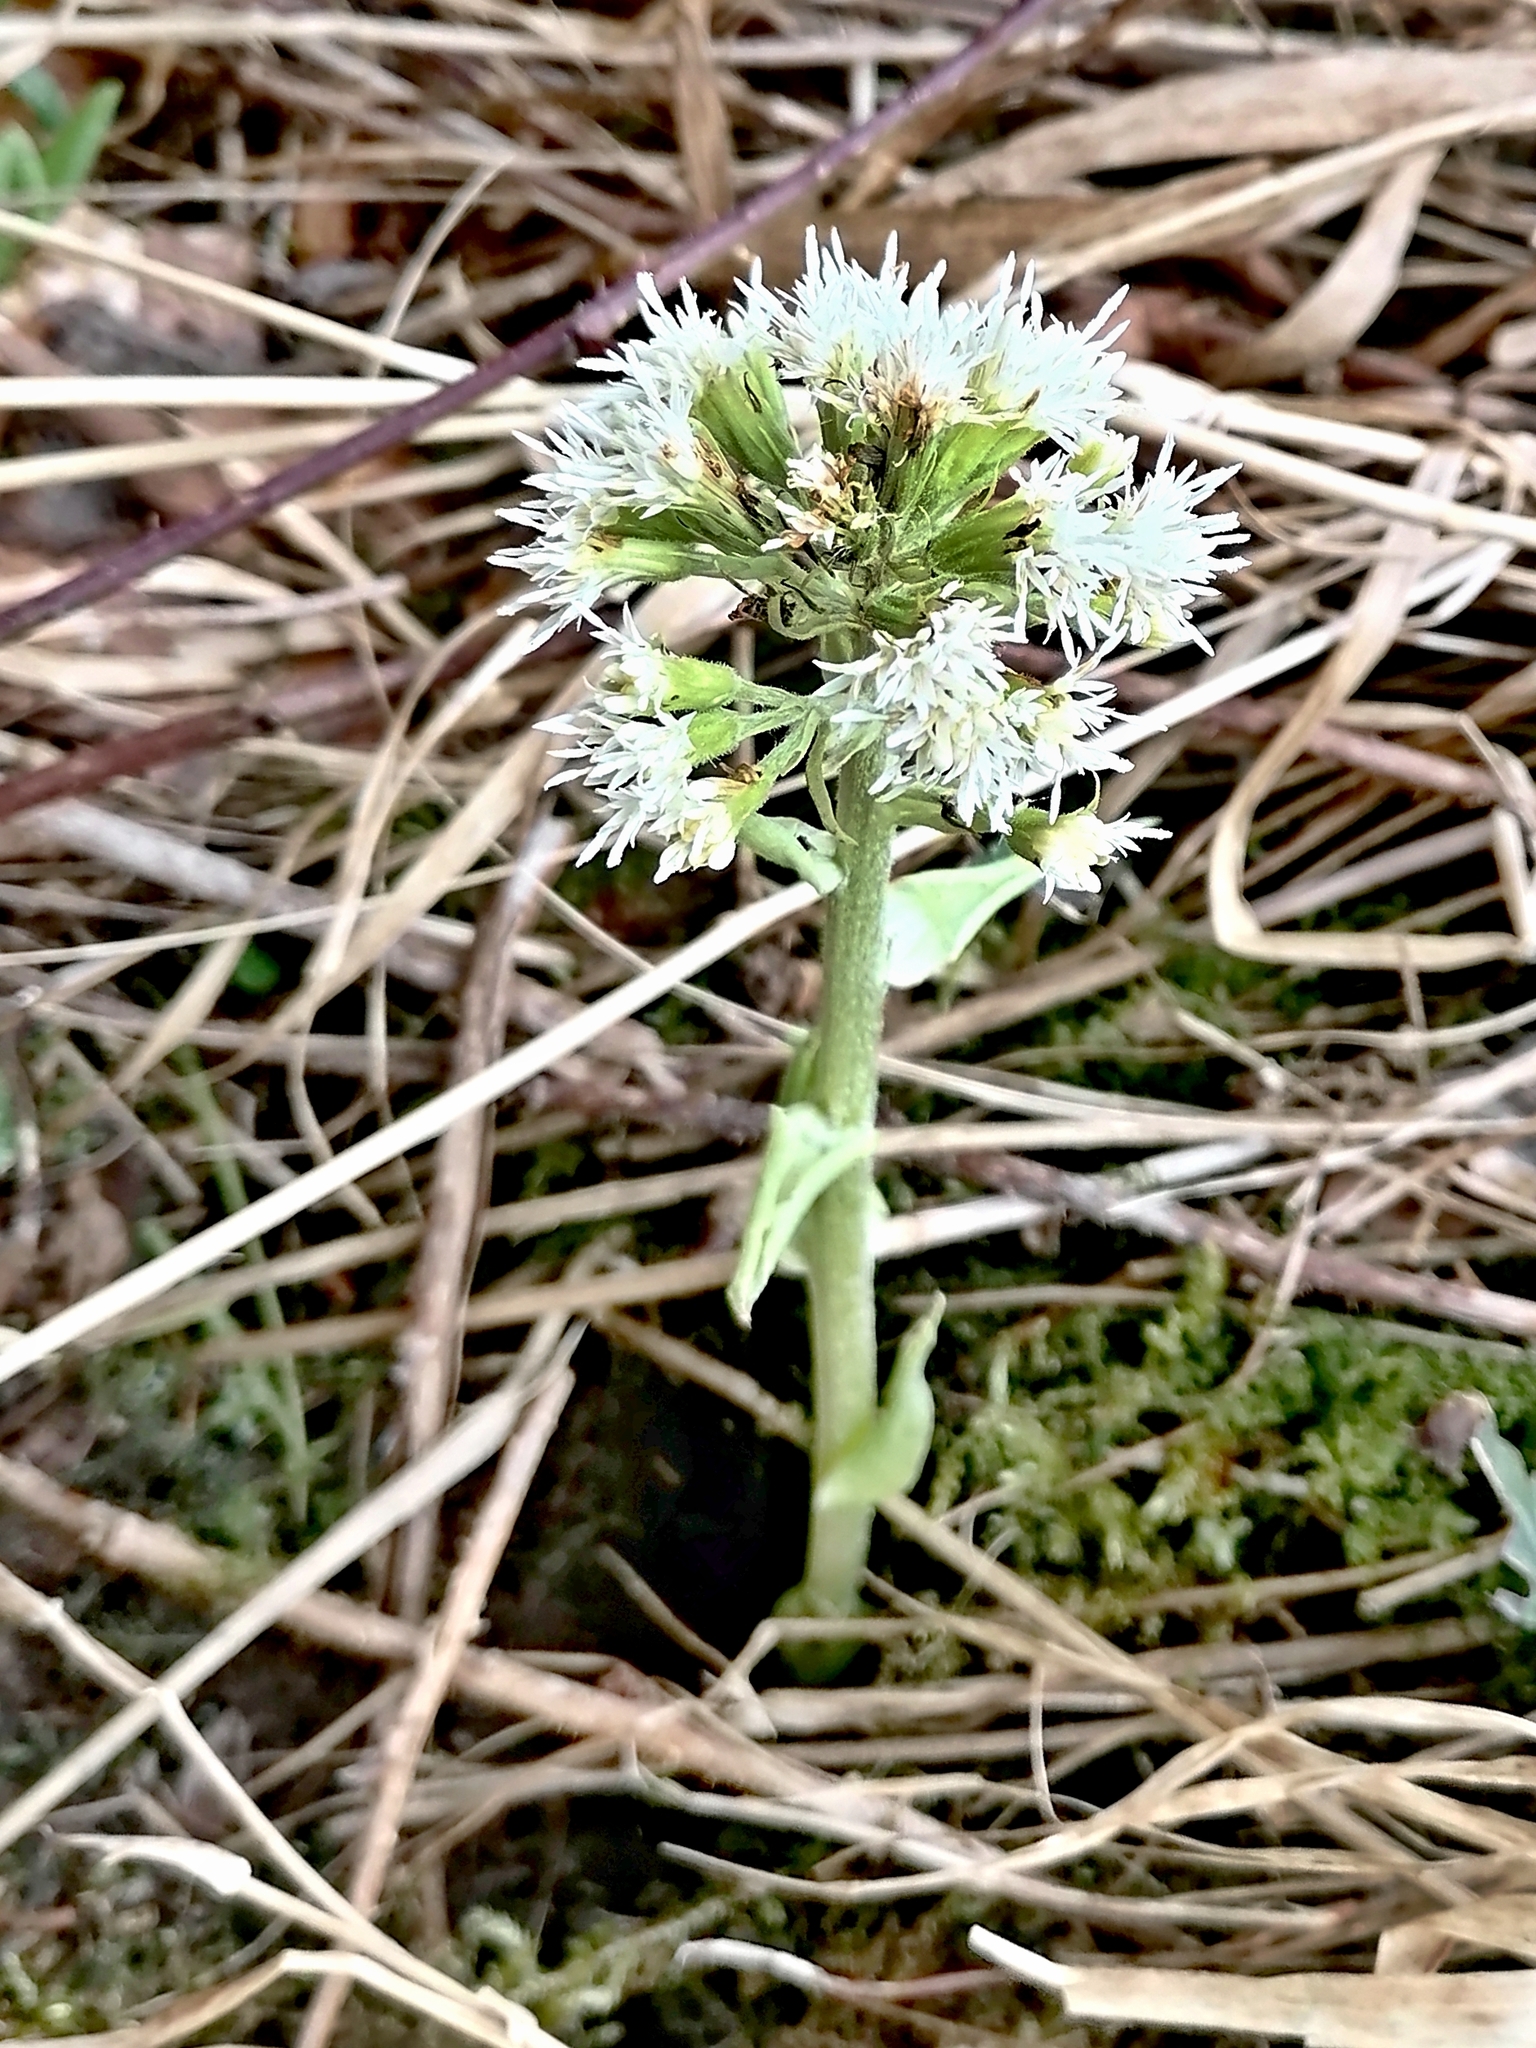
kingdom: Plantae
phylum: Tracheophyta
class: Magnoliopsida
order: Asterales
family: Asteraceae
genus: Petasites
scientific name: Petasites albus
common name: White butterbur
